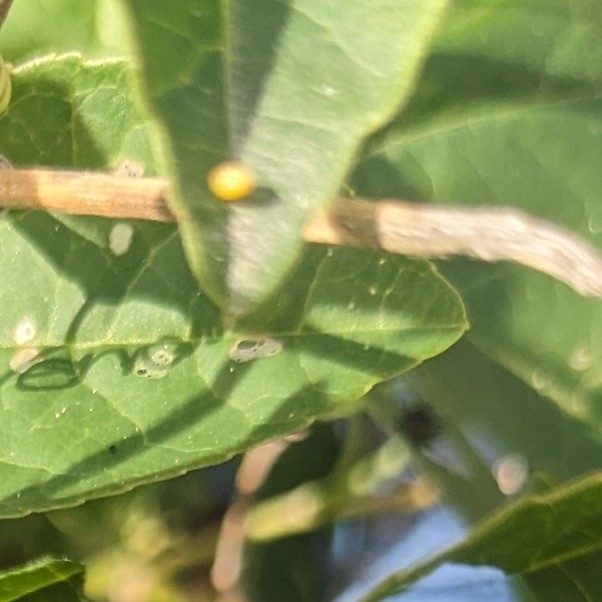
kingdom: Animalia
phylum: Arthropoda
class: Insecta
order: Lepidoptera
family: Nymphalidae
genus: Dione
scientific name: Dione vanillae
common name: Gulf fritillary
